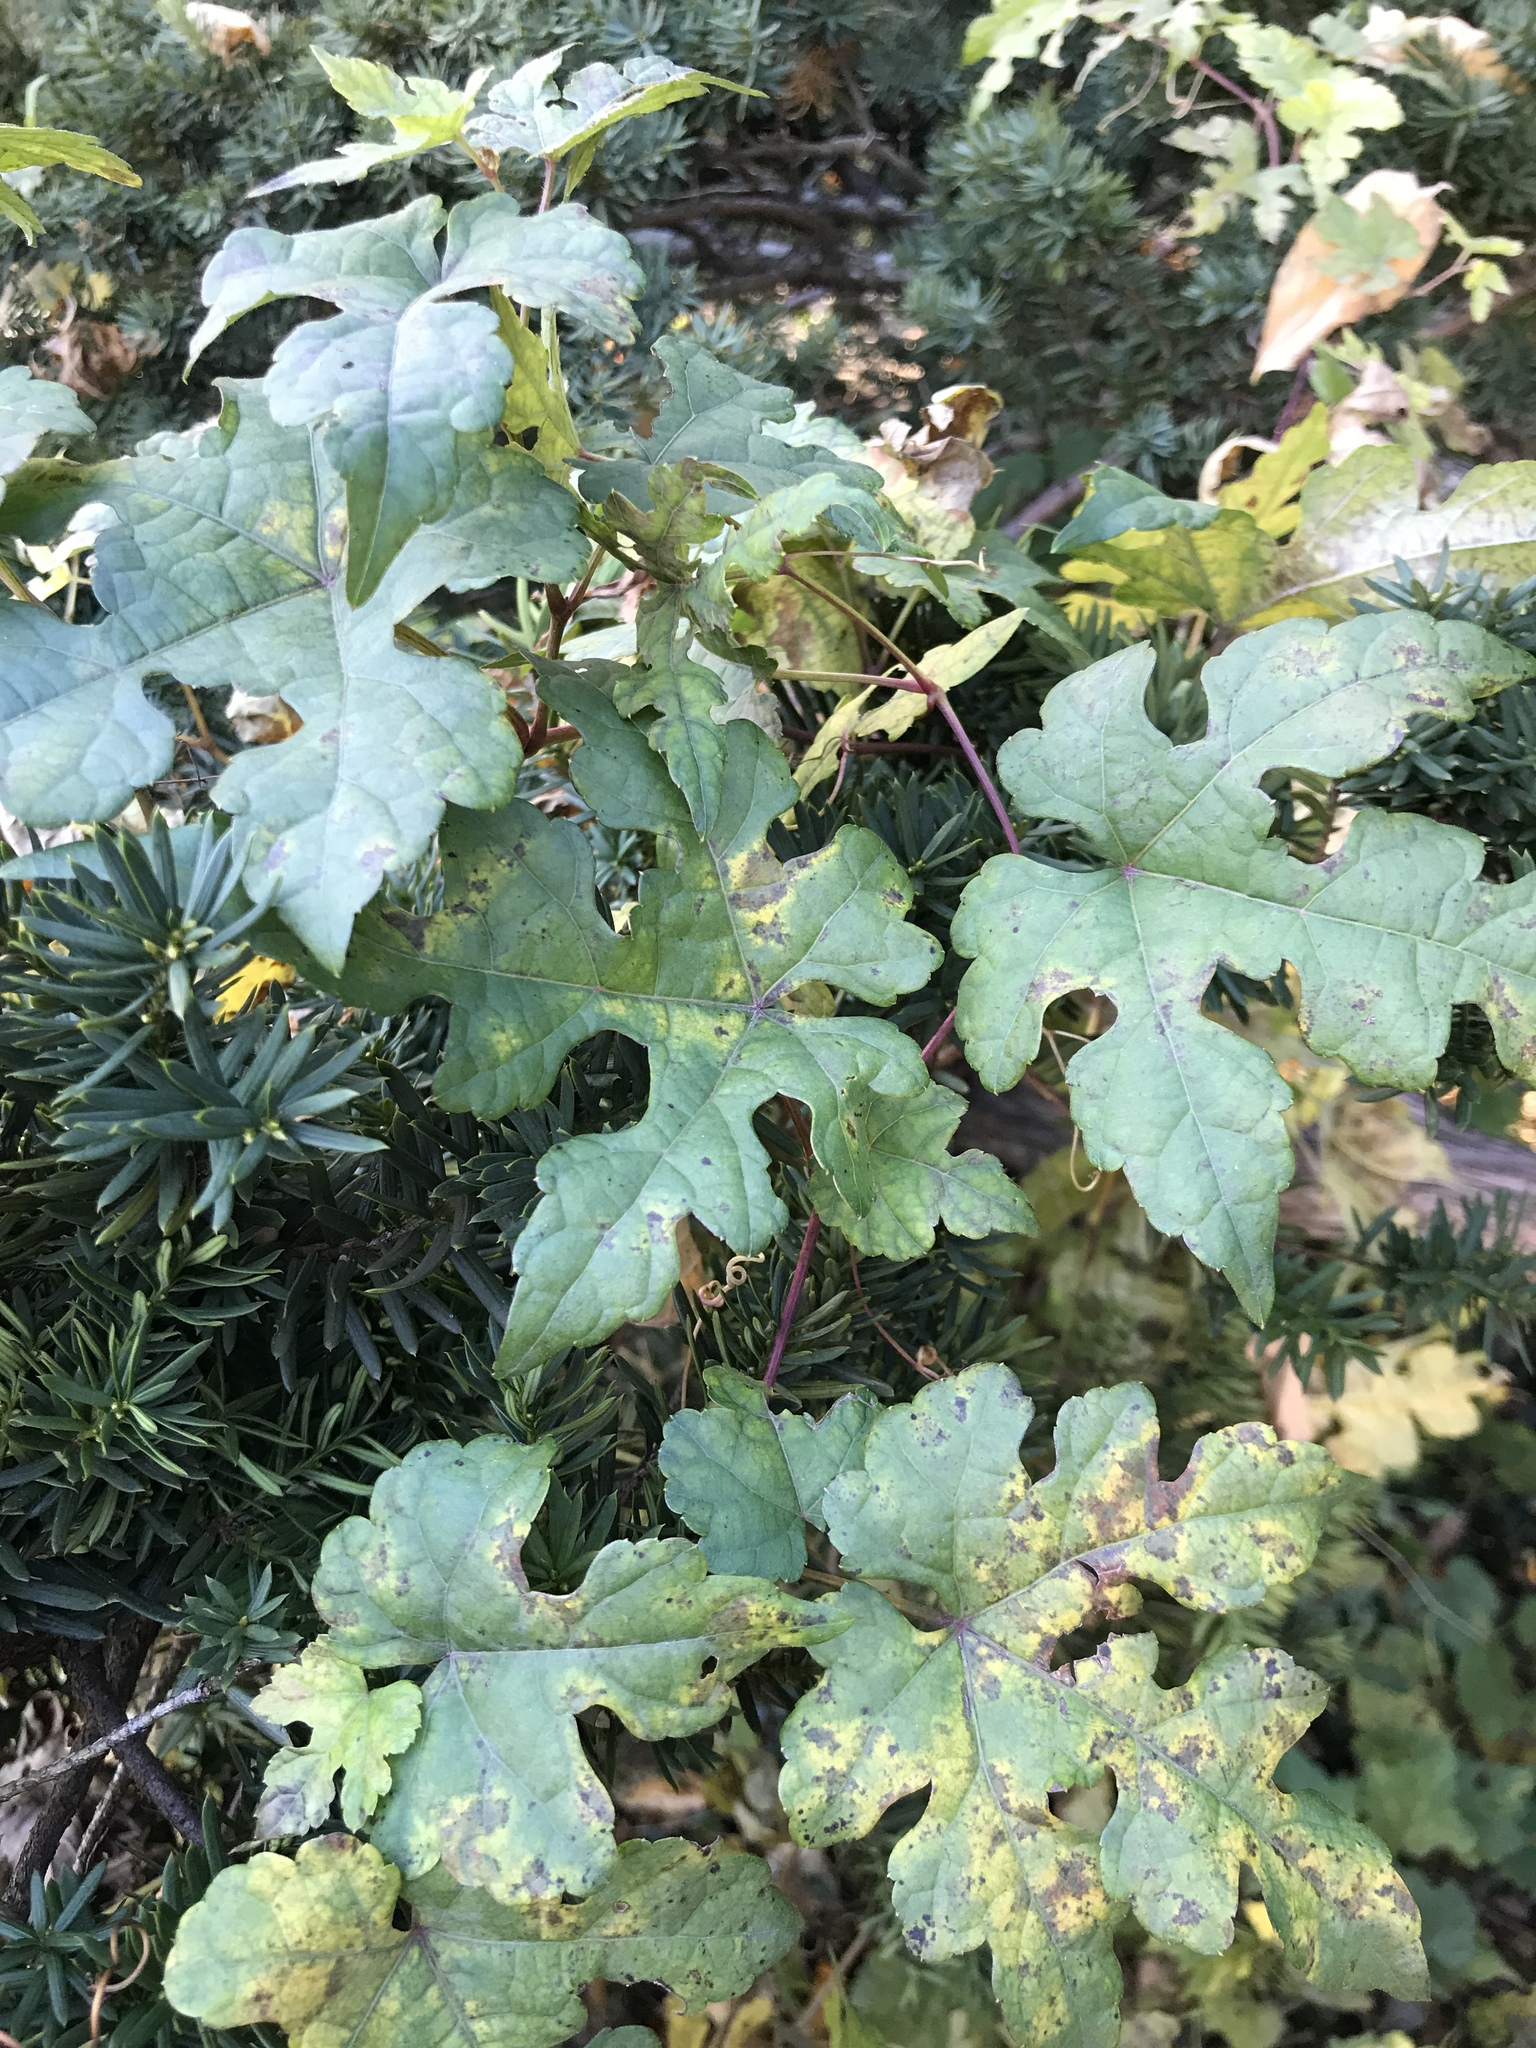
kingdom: Plantae
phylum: Tracheophyta
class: Magnoliopsida
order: Vitales
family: Vitaceae
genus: Ampelopsis
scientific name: Ampelopsis glandulosa
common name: Amur peppervine
